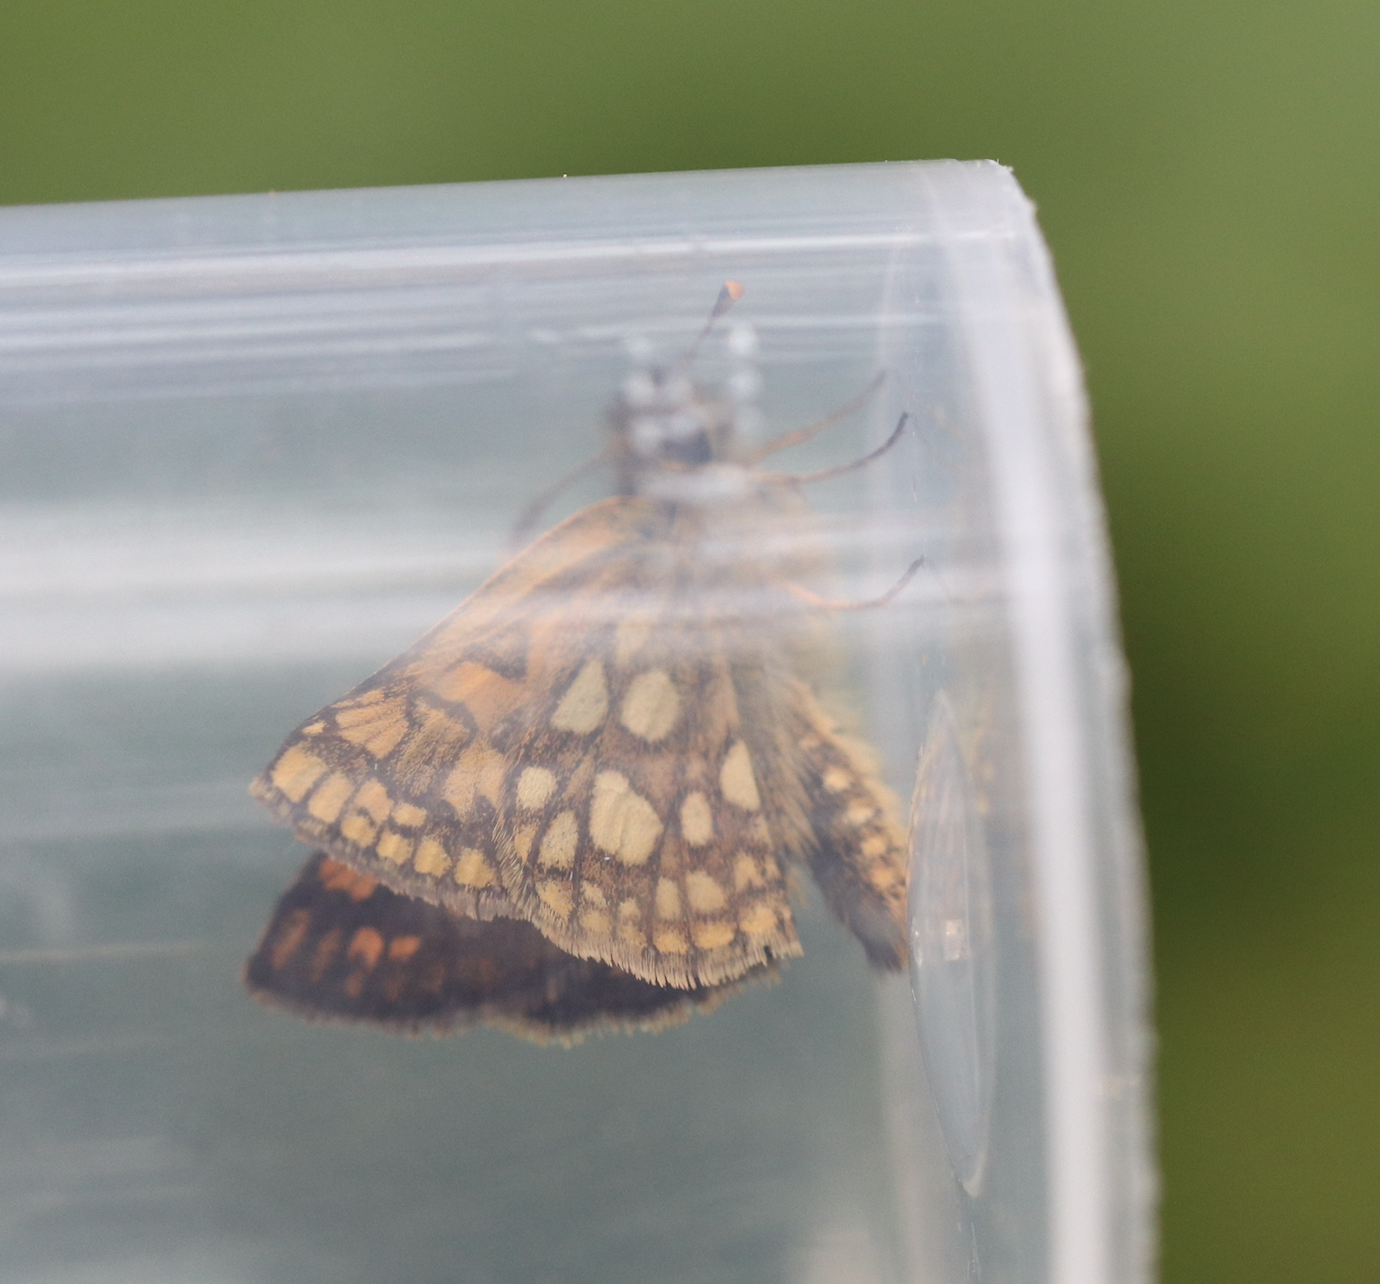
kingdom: Animalia
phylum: Arthropoda
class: Insecta
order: Lepidoptera
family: Hesperiidae
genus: Carterocephalus
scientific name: Carterocephalus palaemon
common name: Chequered skipper
